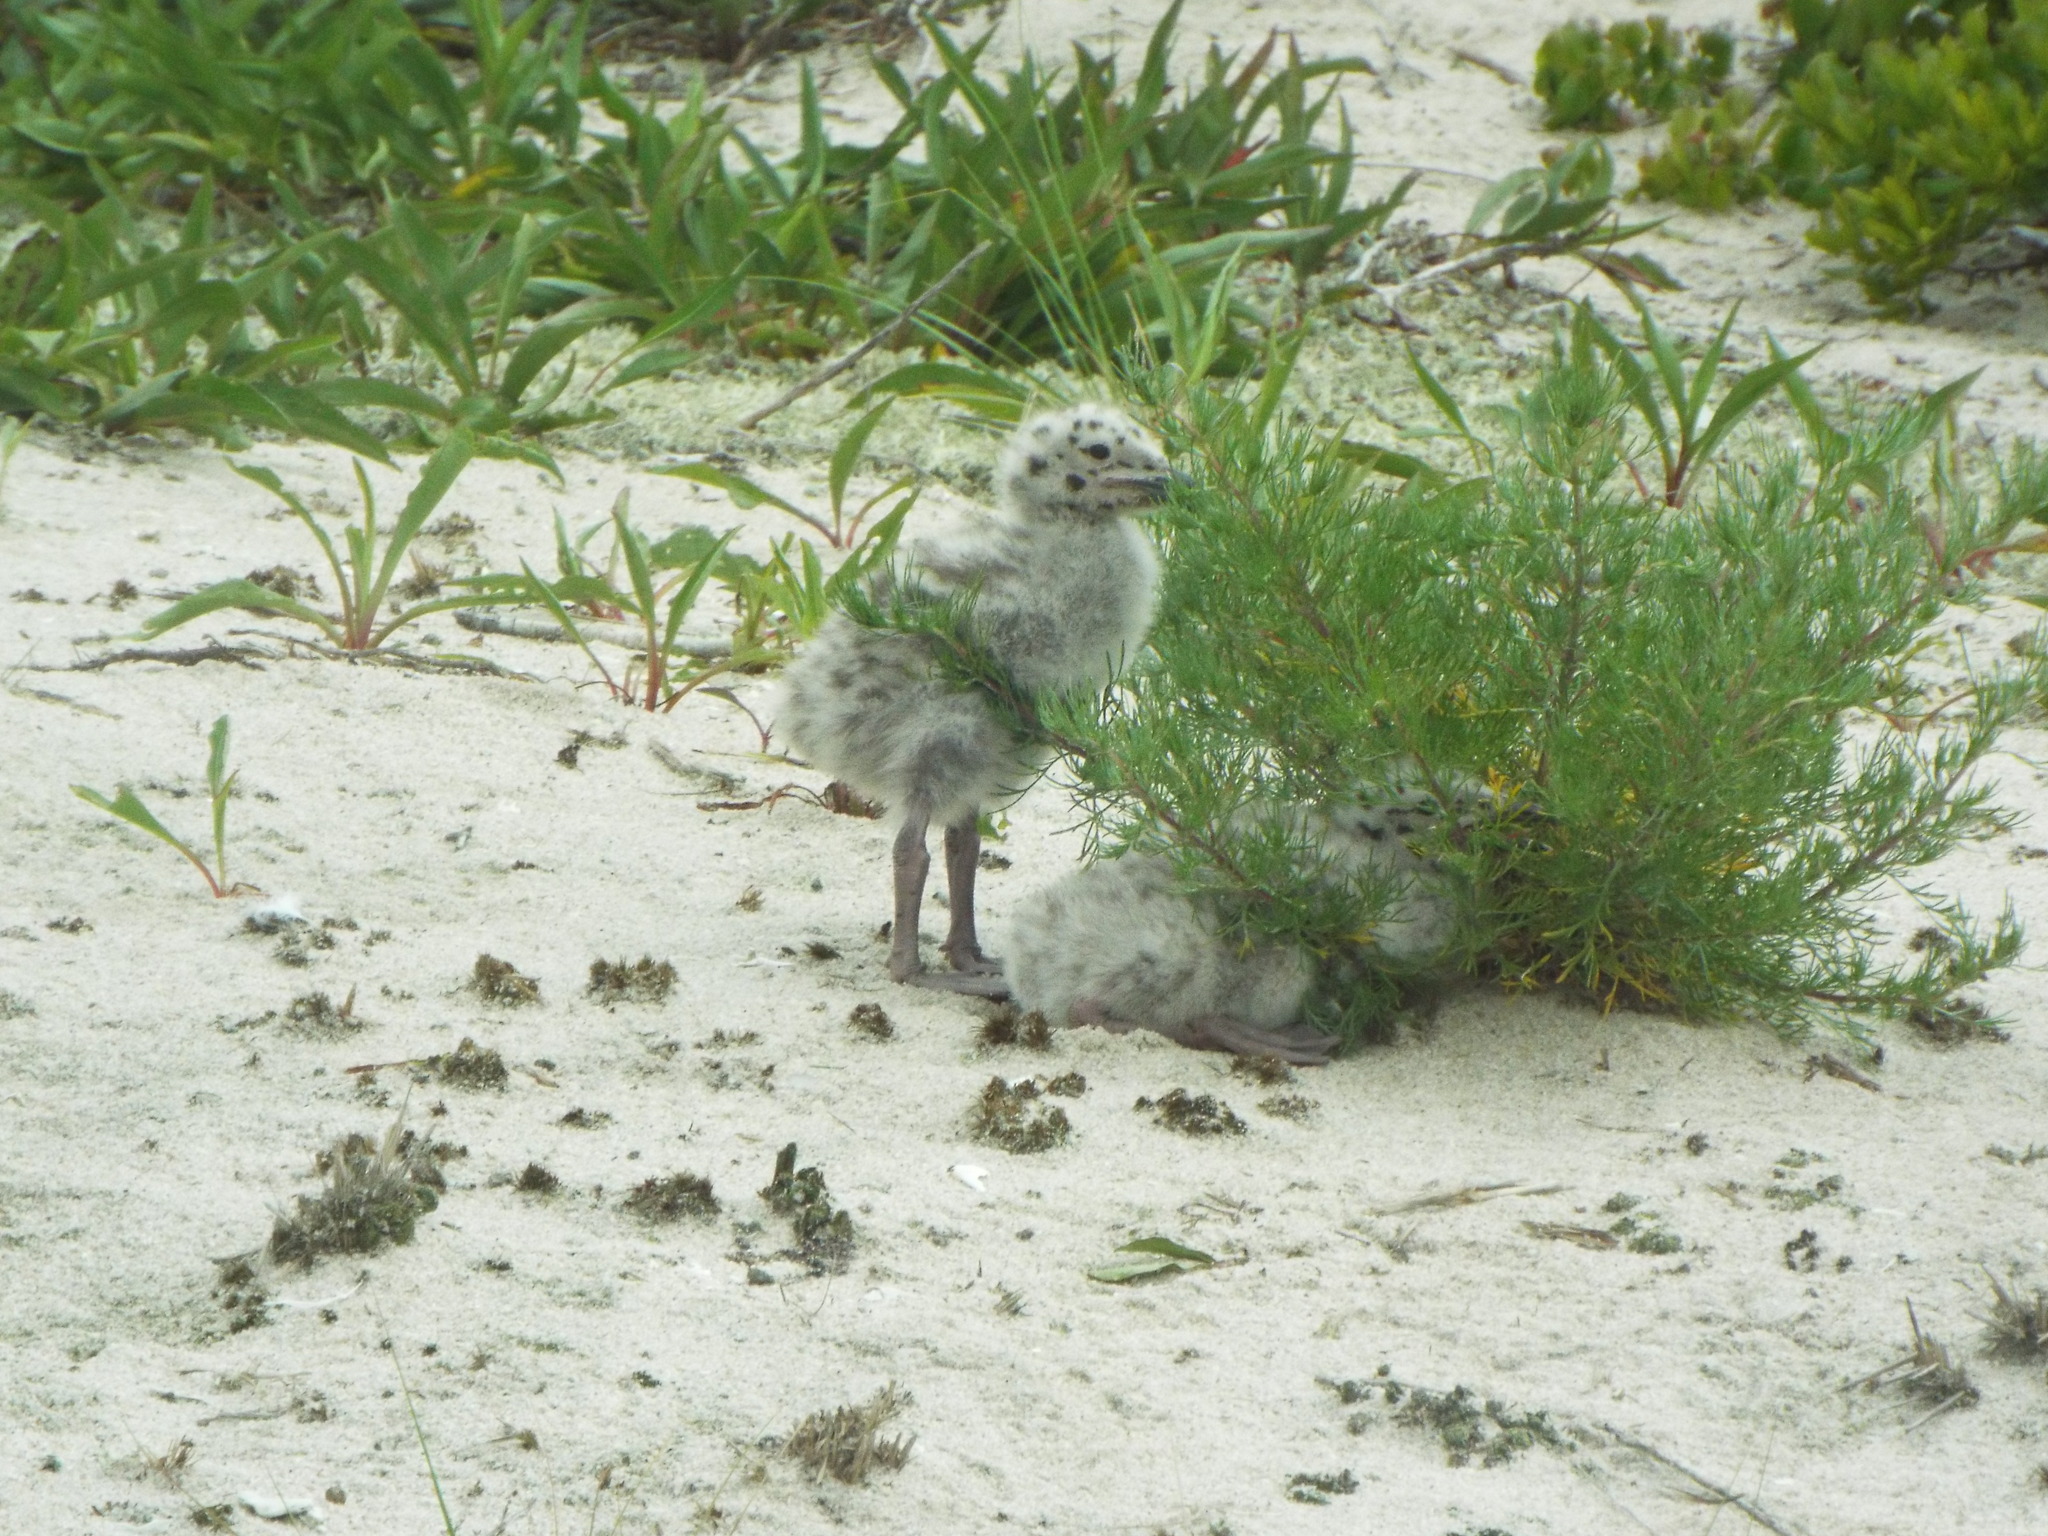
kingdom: Animalia
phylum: Chordata
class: Aves
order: Charadriiformes
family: Laridae
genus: Larus
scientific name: Larus marinus
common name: Great black-backed gull
